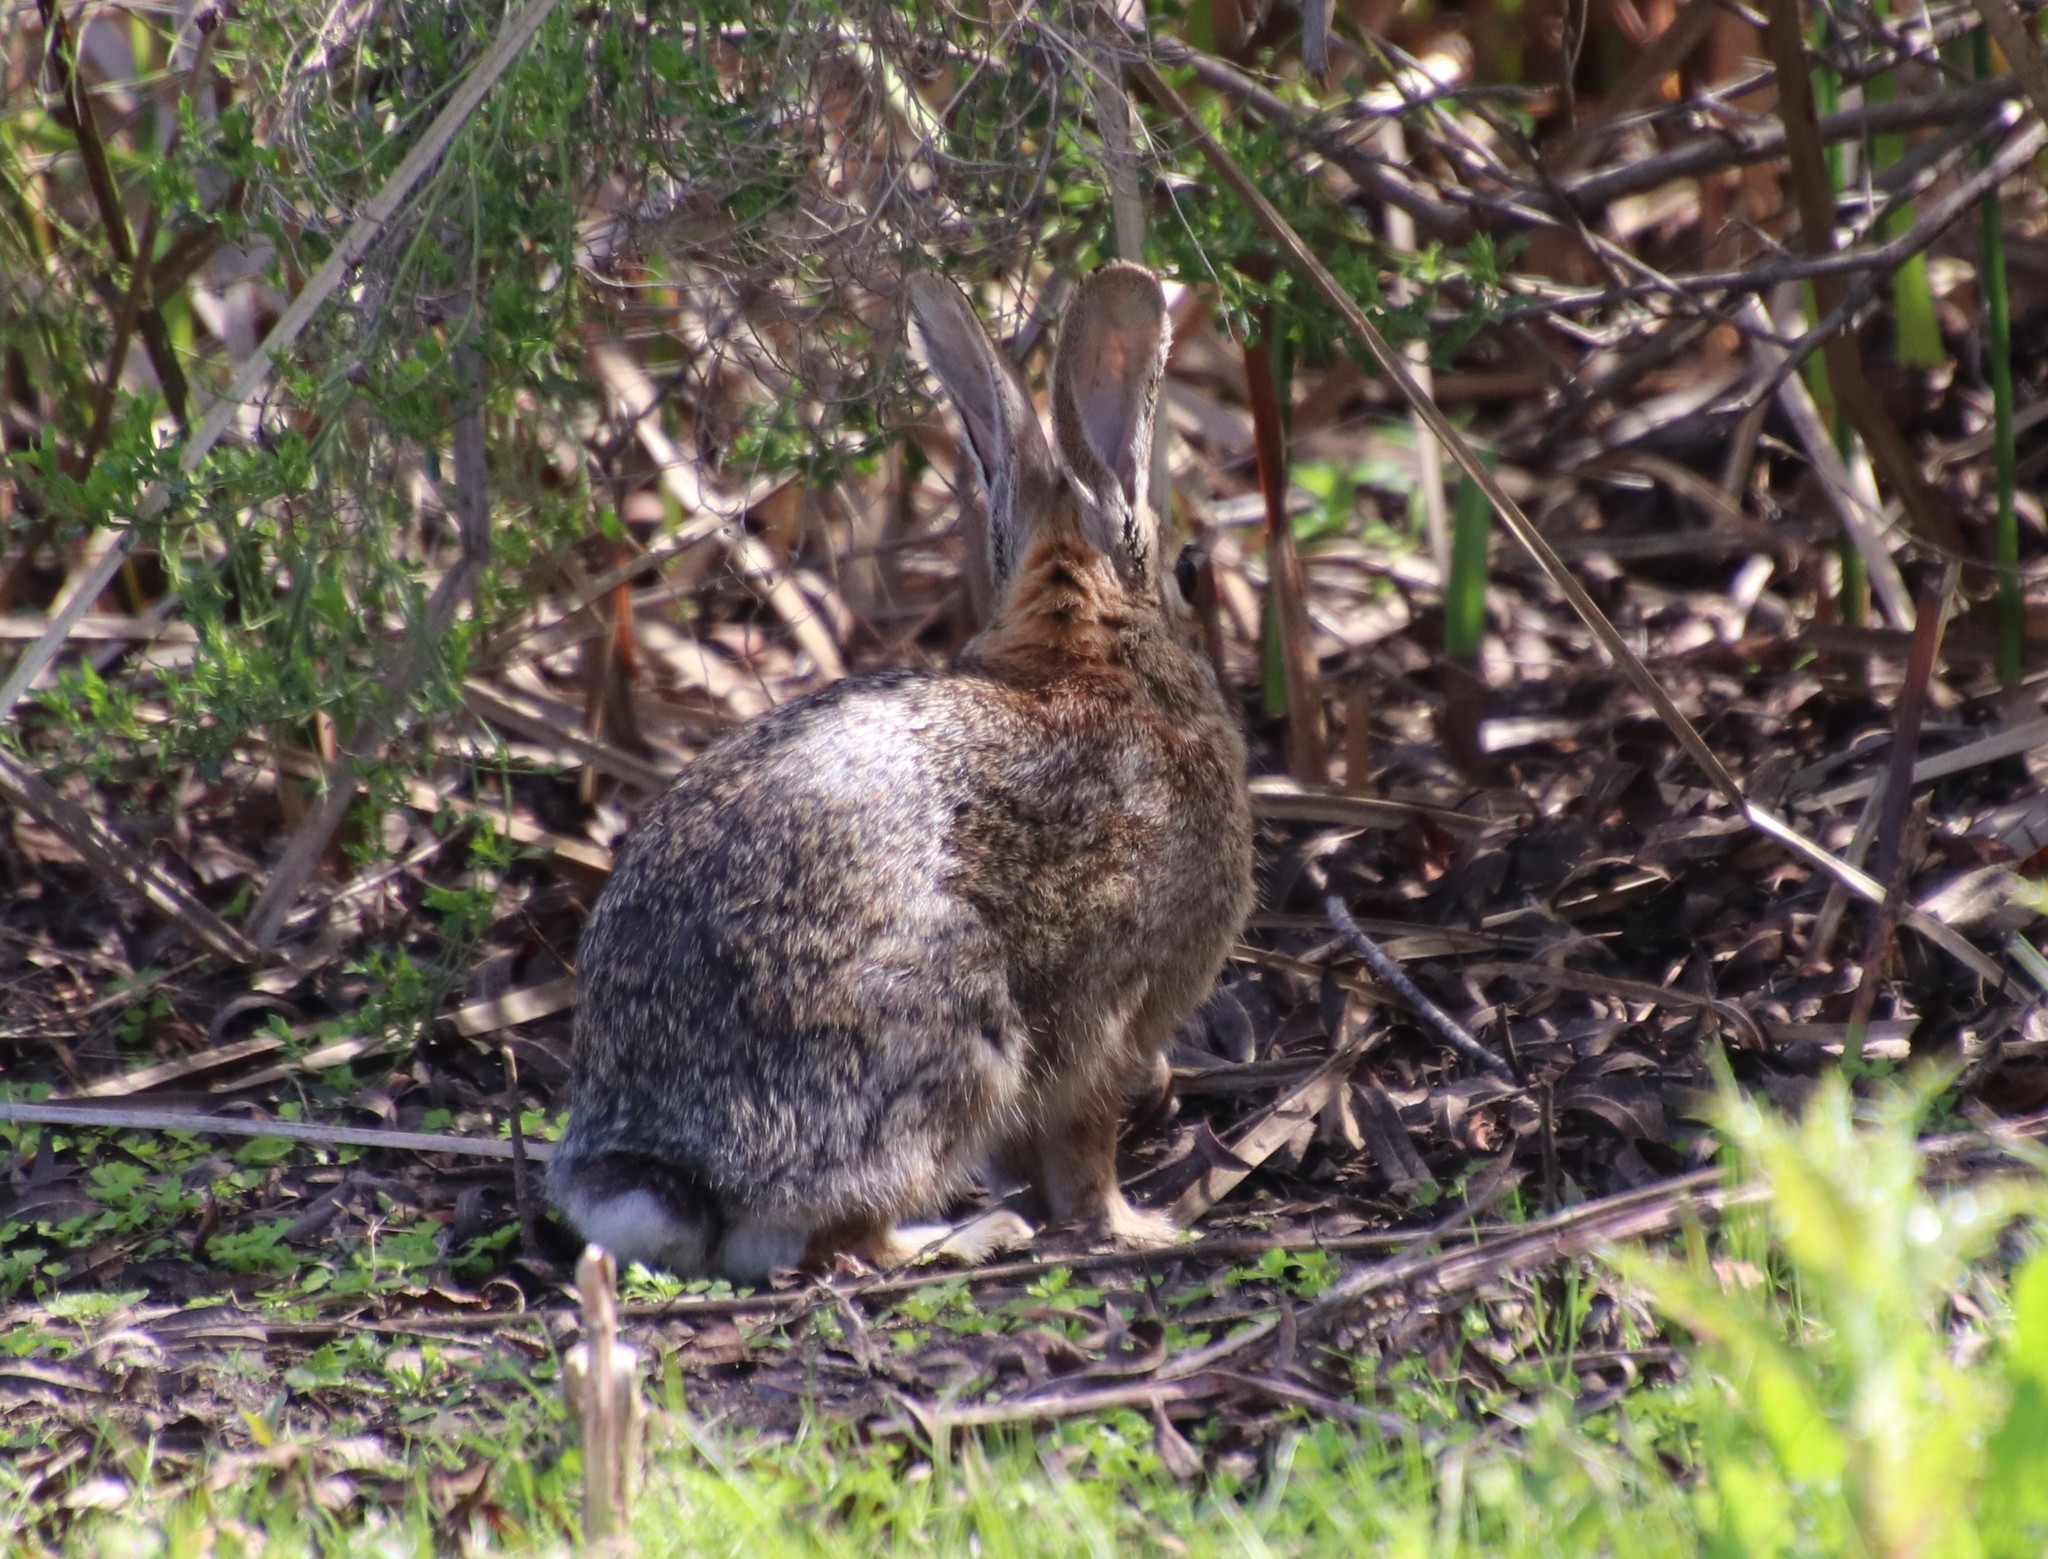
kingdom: Animalia
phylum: Chordata
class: Mammalia
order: Lagomorpha
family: Leporidae
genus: Sylvilagus
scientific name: Sylvilagus audubonii
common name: Desert cottontail
